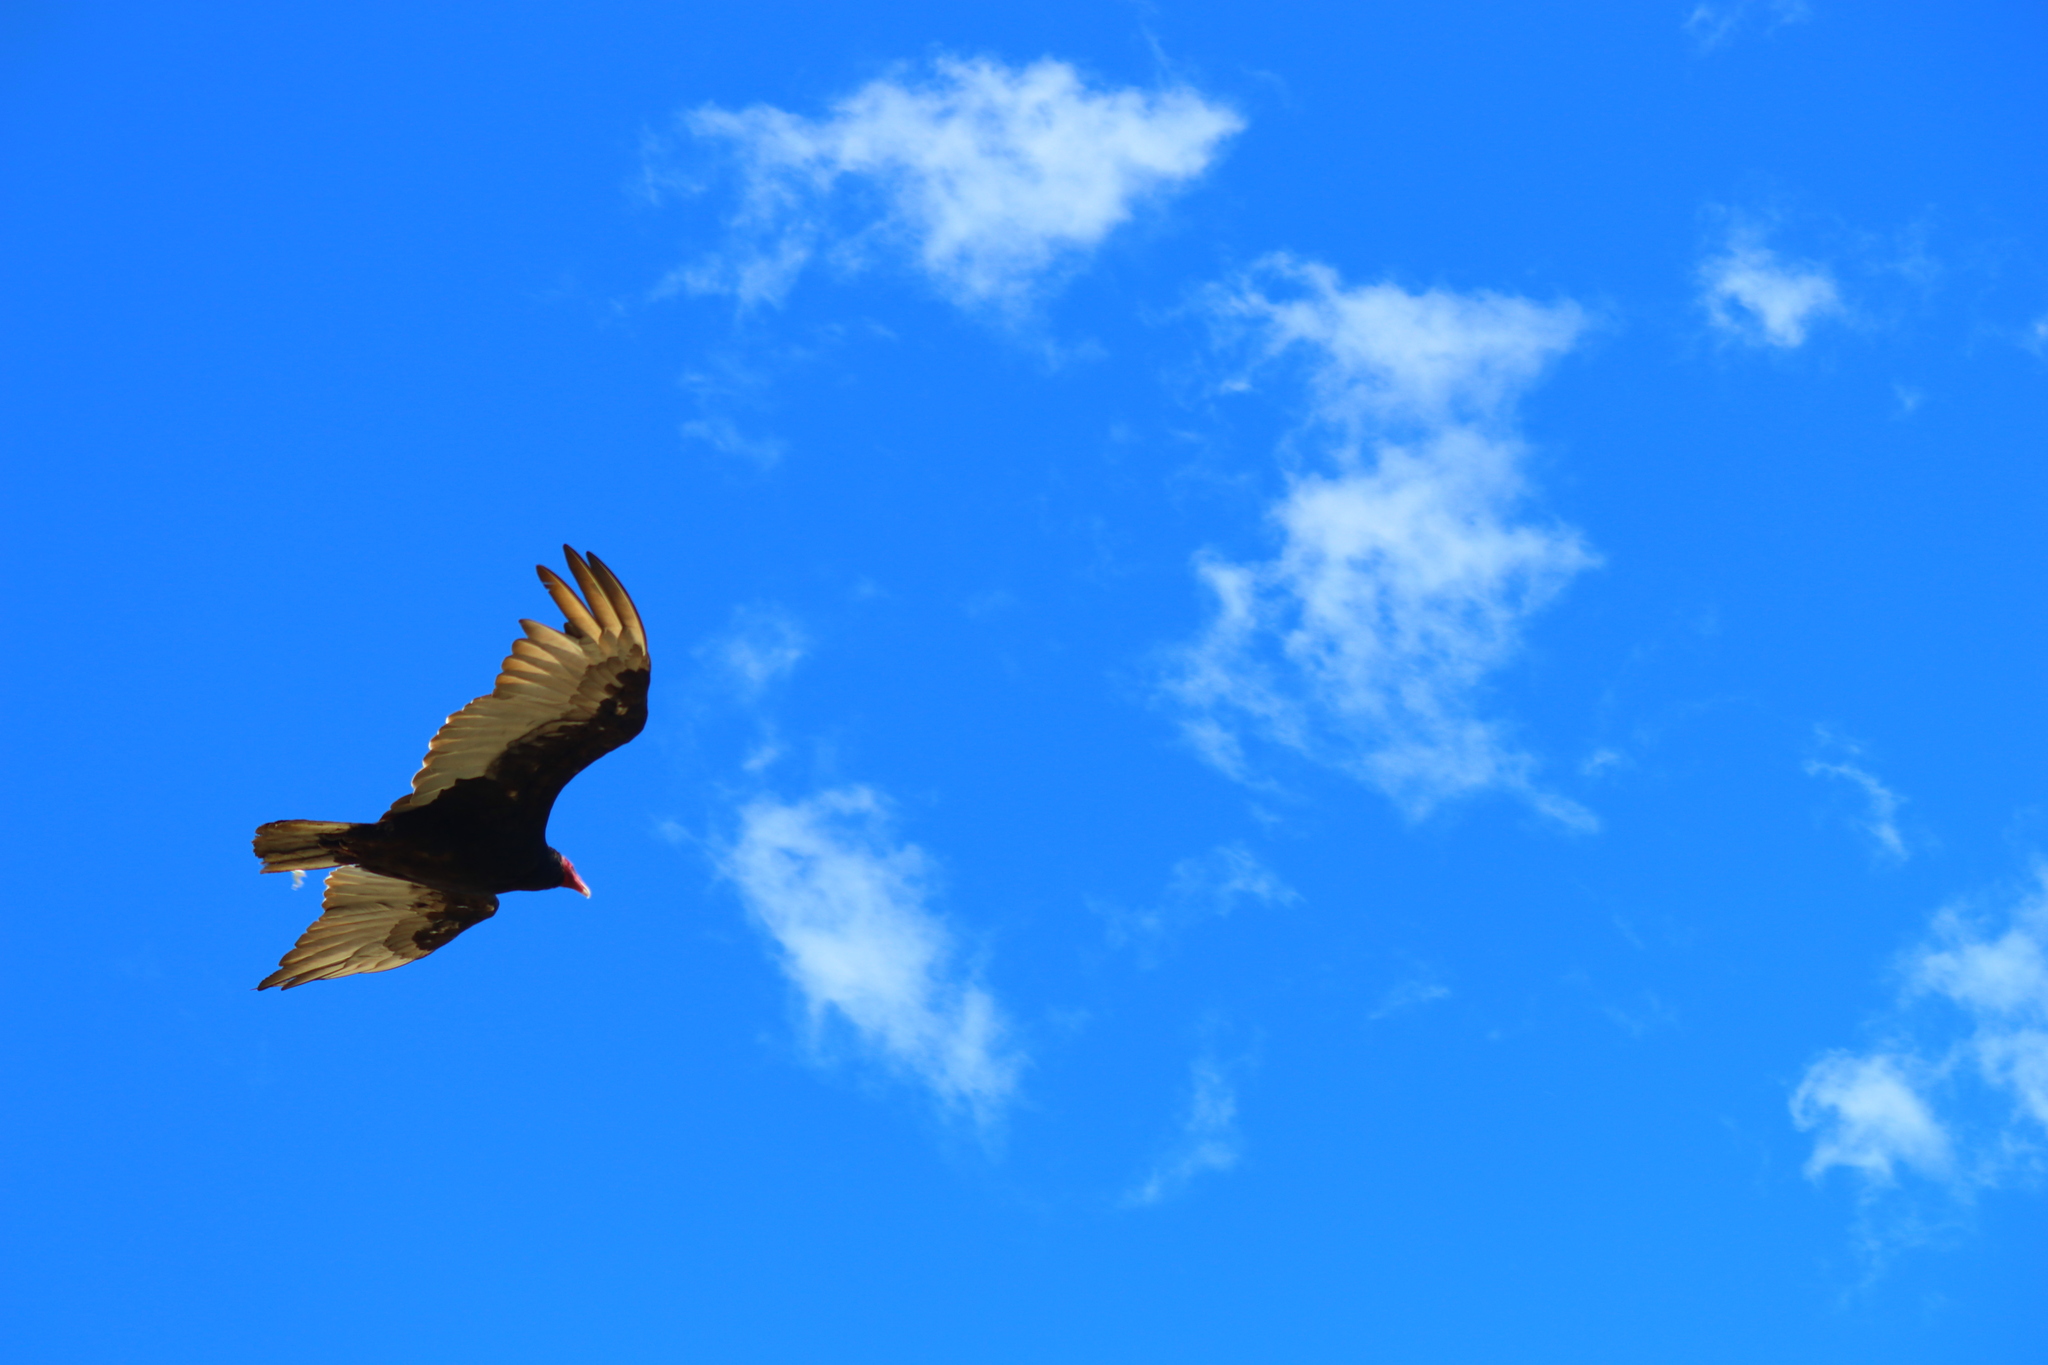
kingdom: Animalia
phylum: Chordata
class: Aves
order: Accipitriformes
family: Cathartidae
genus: Cathartes
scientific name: Cathartes aura
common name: Turkey vulture
